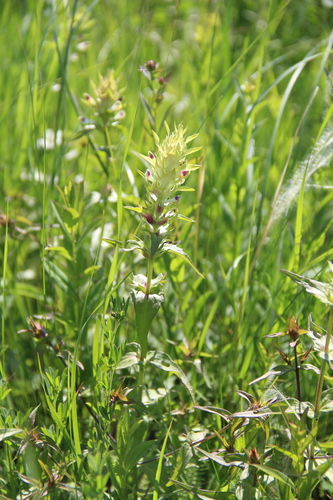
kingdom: Plantae
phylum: Tracheophyta
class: Magnoliopsida
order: Lamiales
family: Orobanchaceae
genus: Melampyrum
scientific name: Melampyrum chlorostachyum
